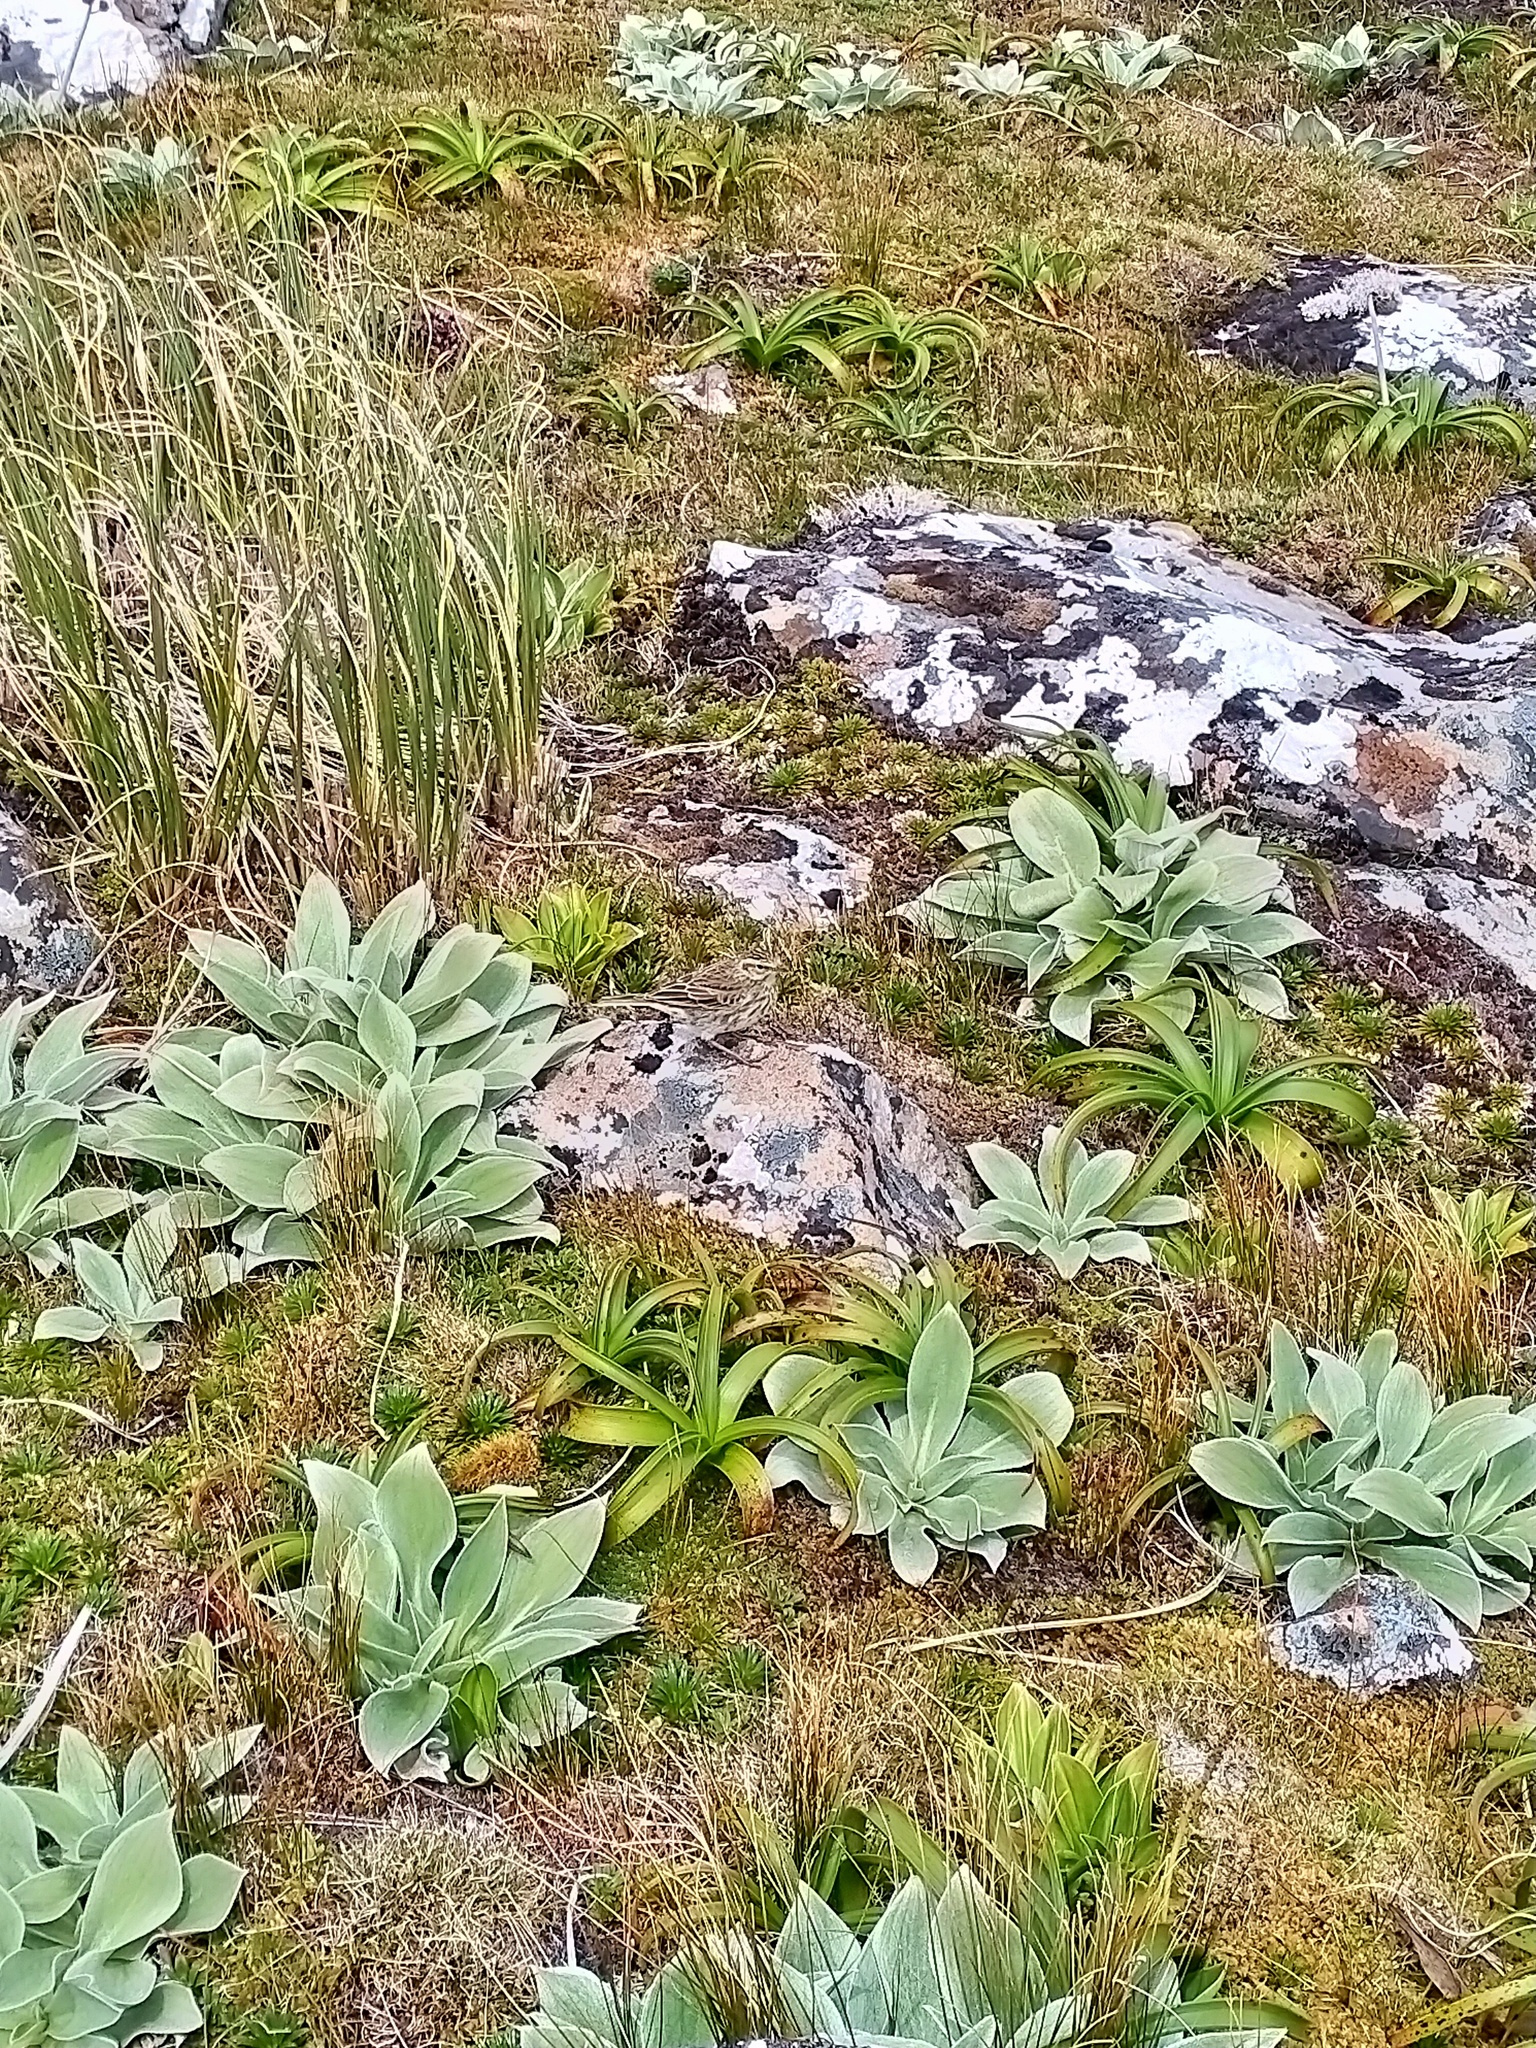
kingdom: Animalia
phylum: Chordata
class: Aves
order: Passeriformes
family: Motacillidae
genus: Anthus
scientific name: Anthus novaeseelandiae
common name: New zealand pipit
